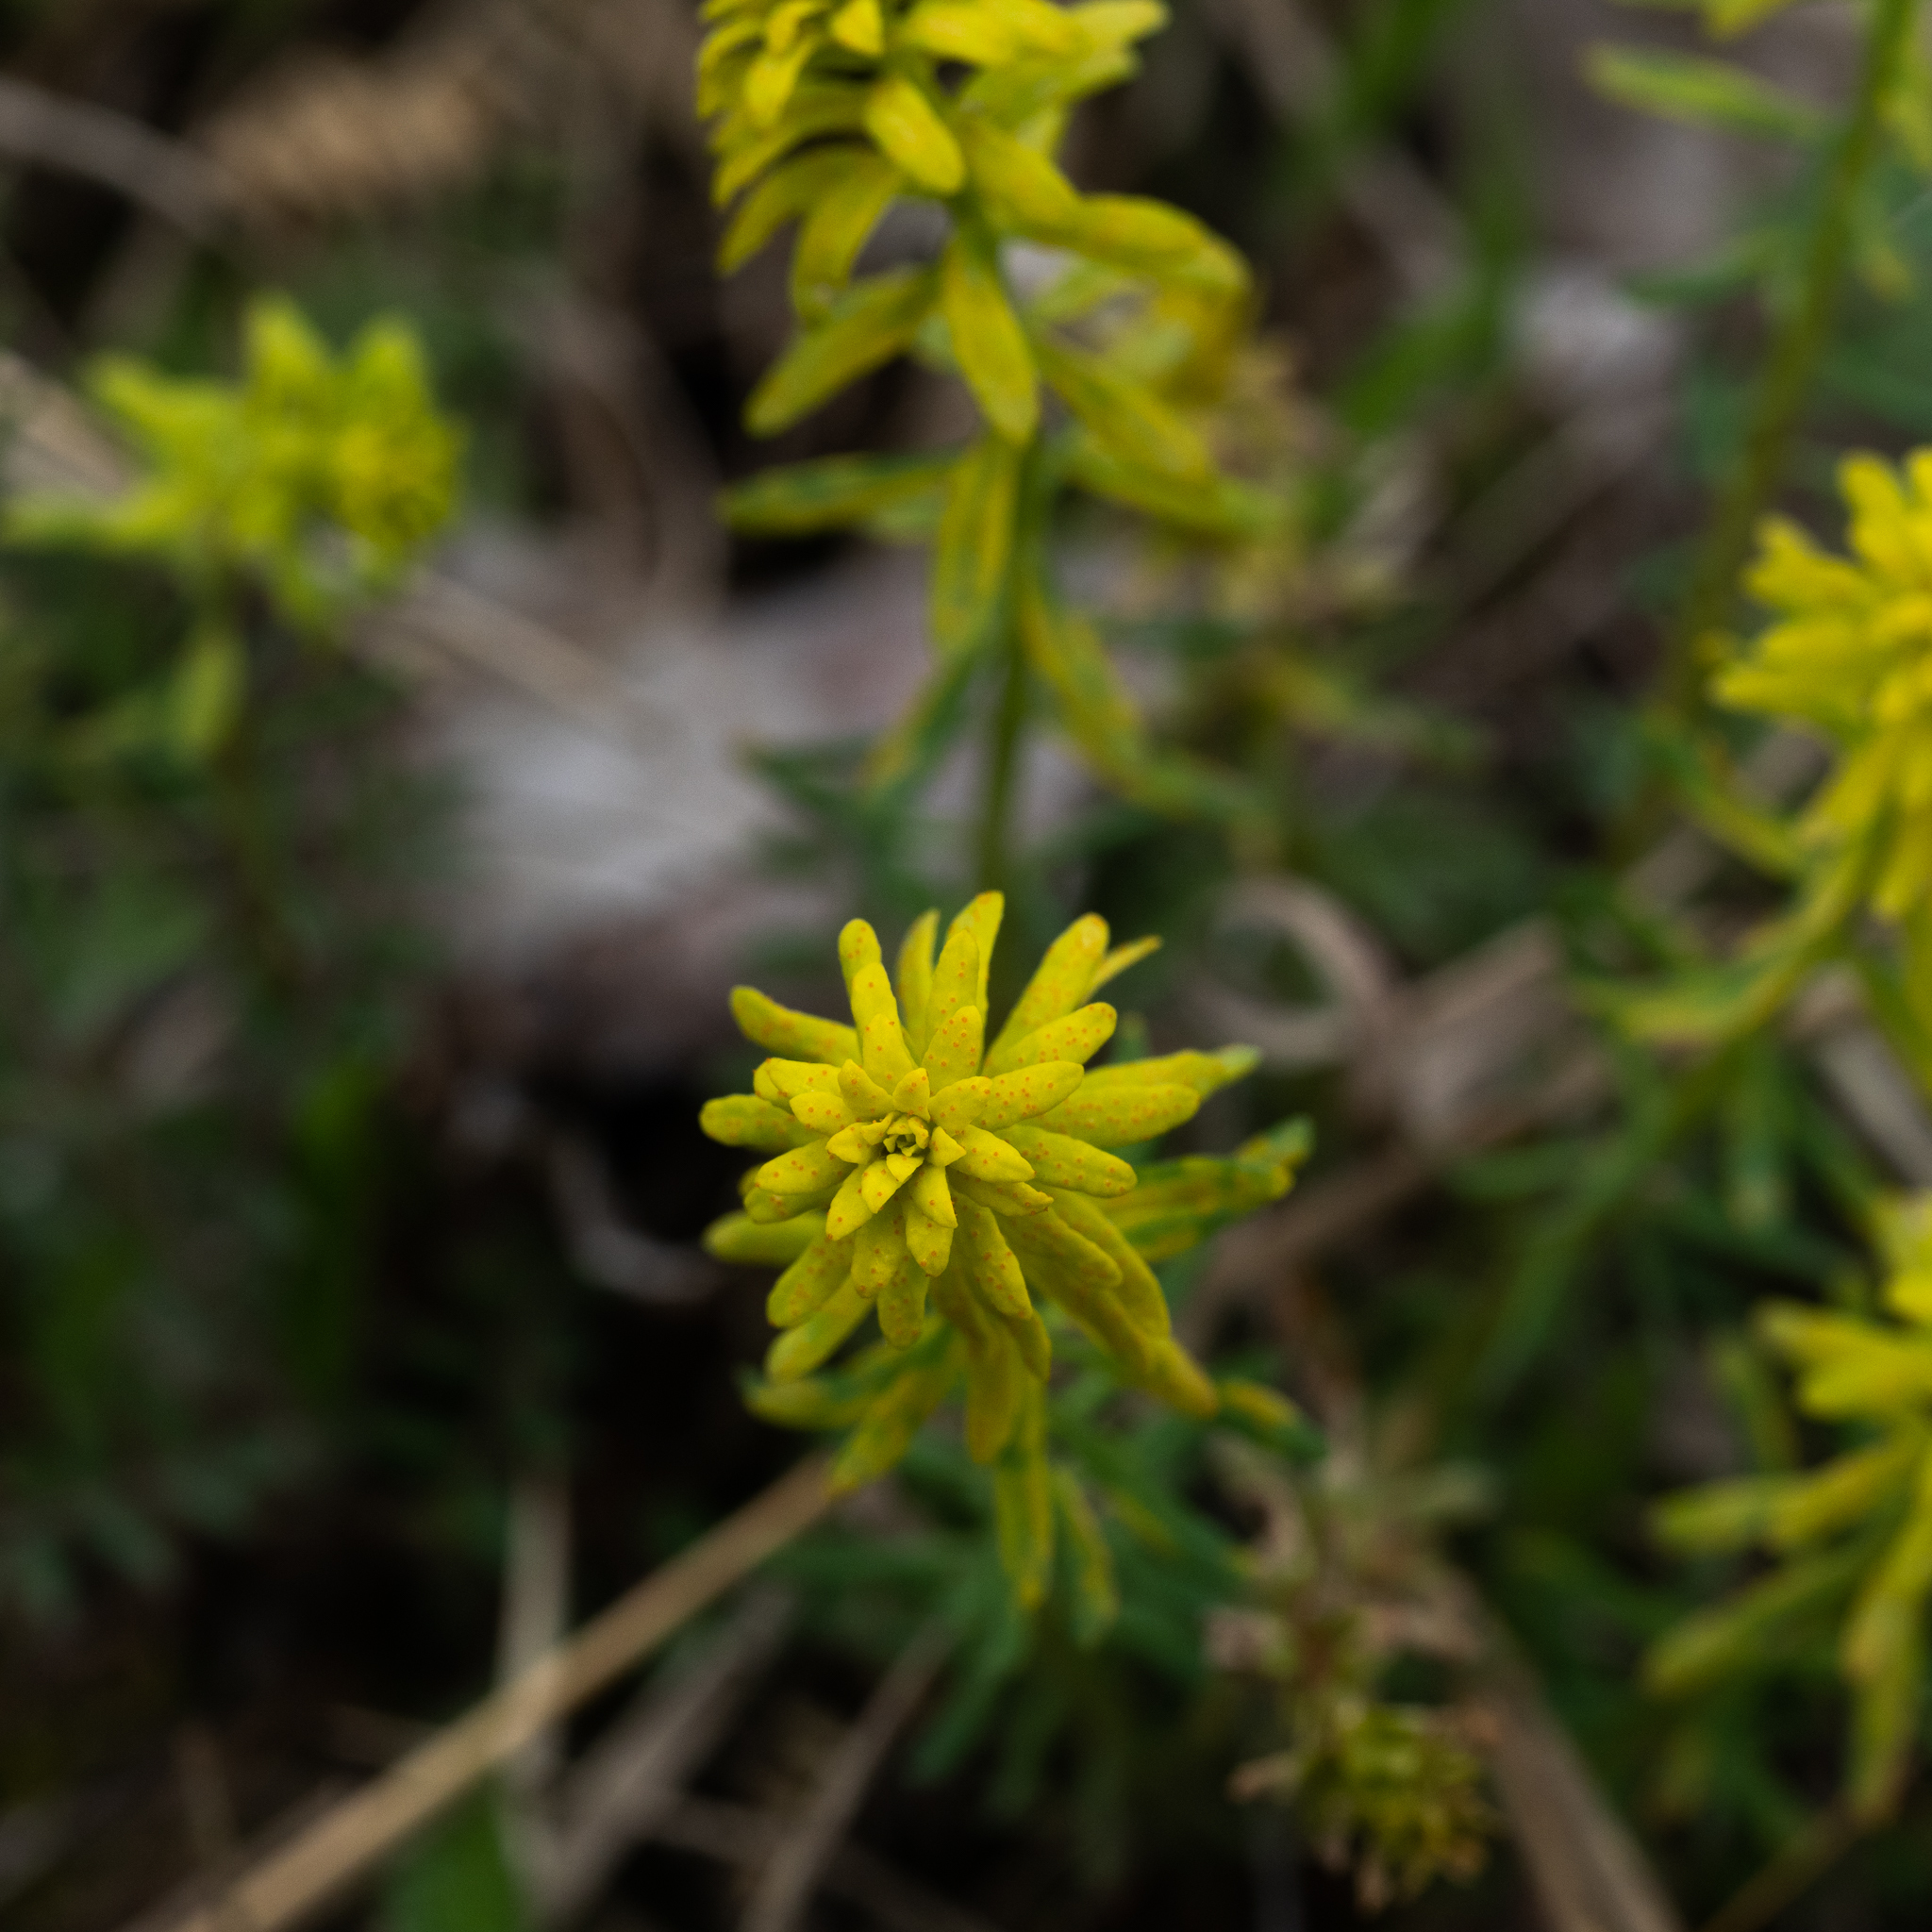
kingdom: Plantae
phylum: Tracheophyta
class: Magnoliopsida
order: Malpighiales
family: Euphorbiaceae
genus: Euphorbia
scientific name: Euphorbia cyparissias
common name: Cypress spurge
